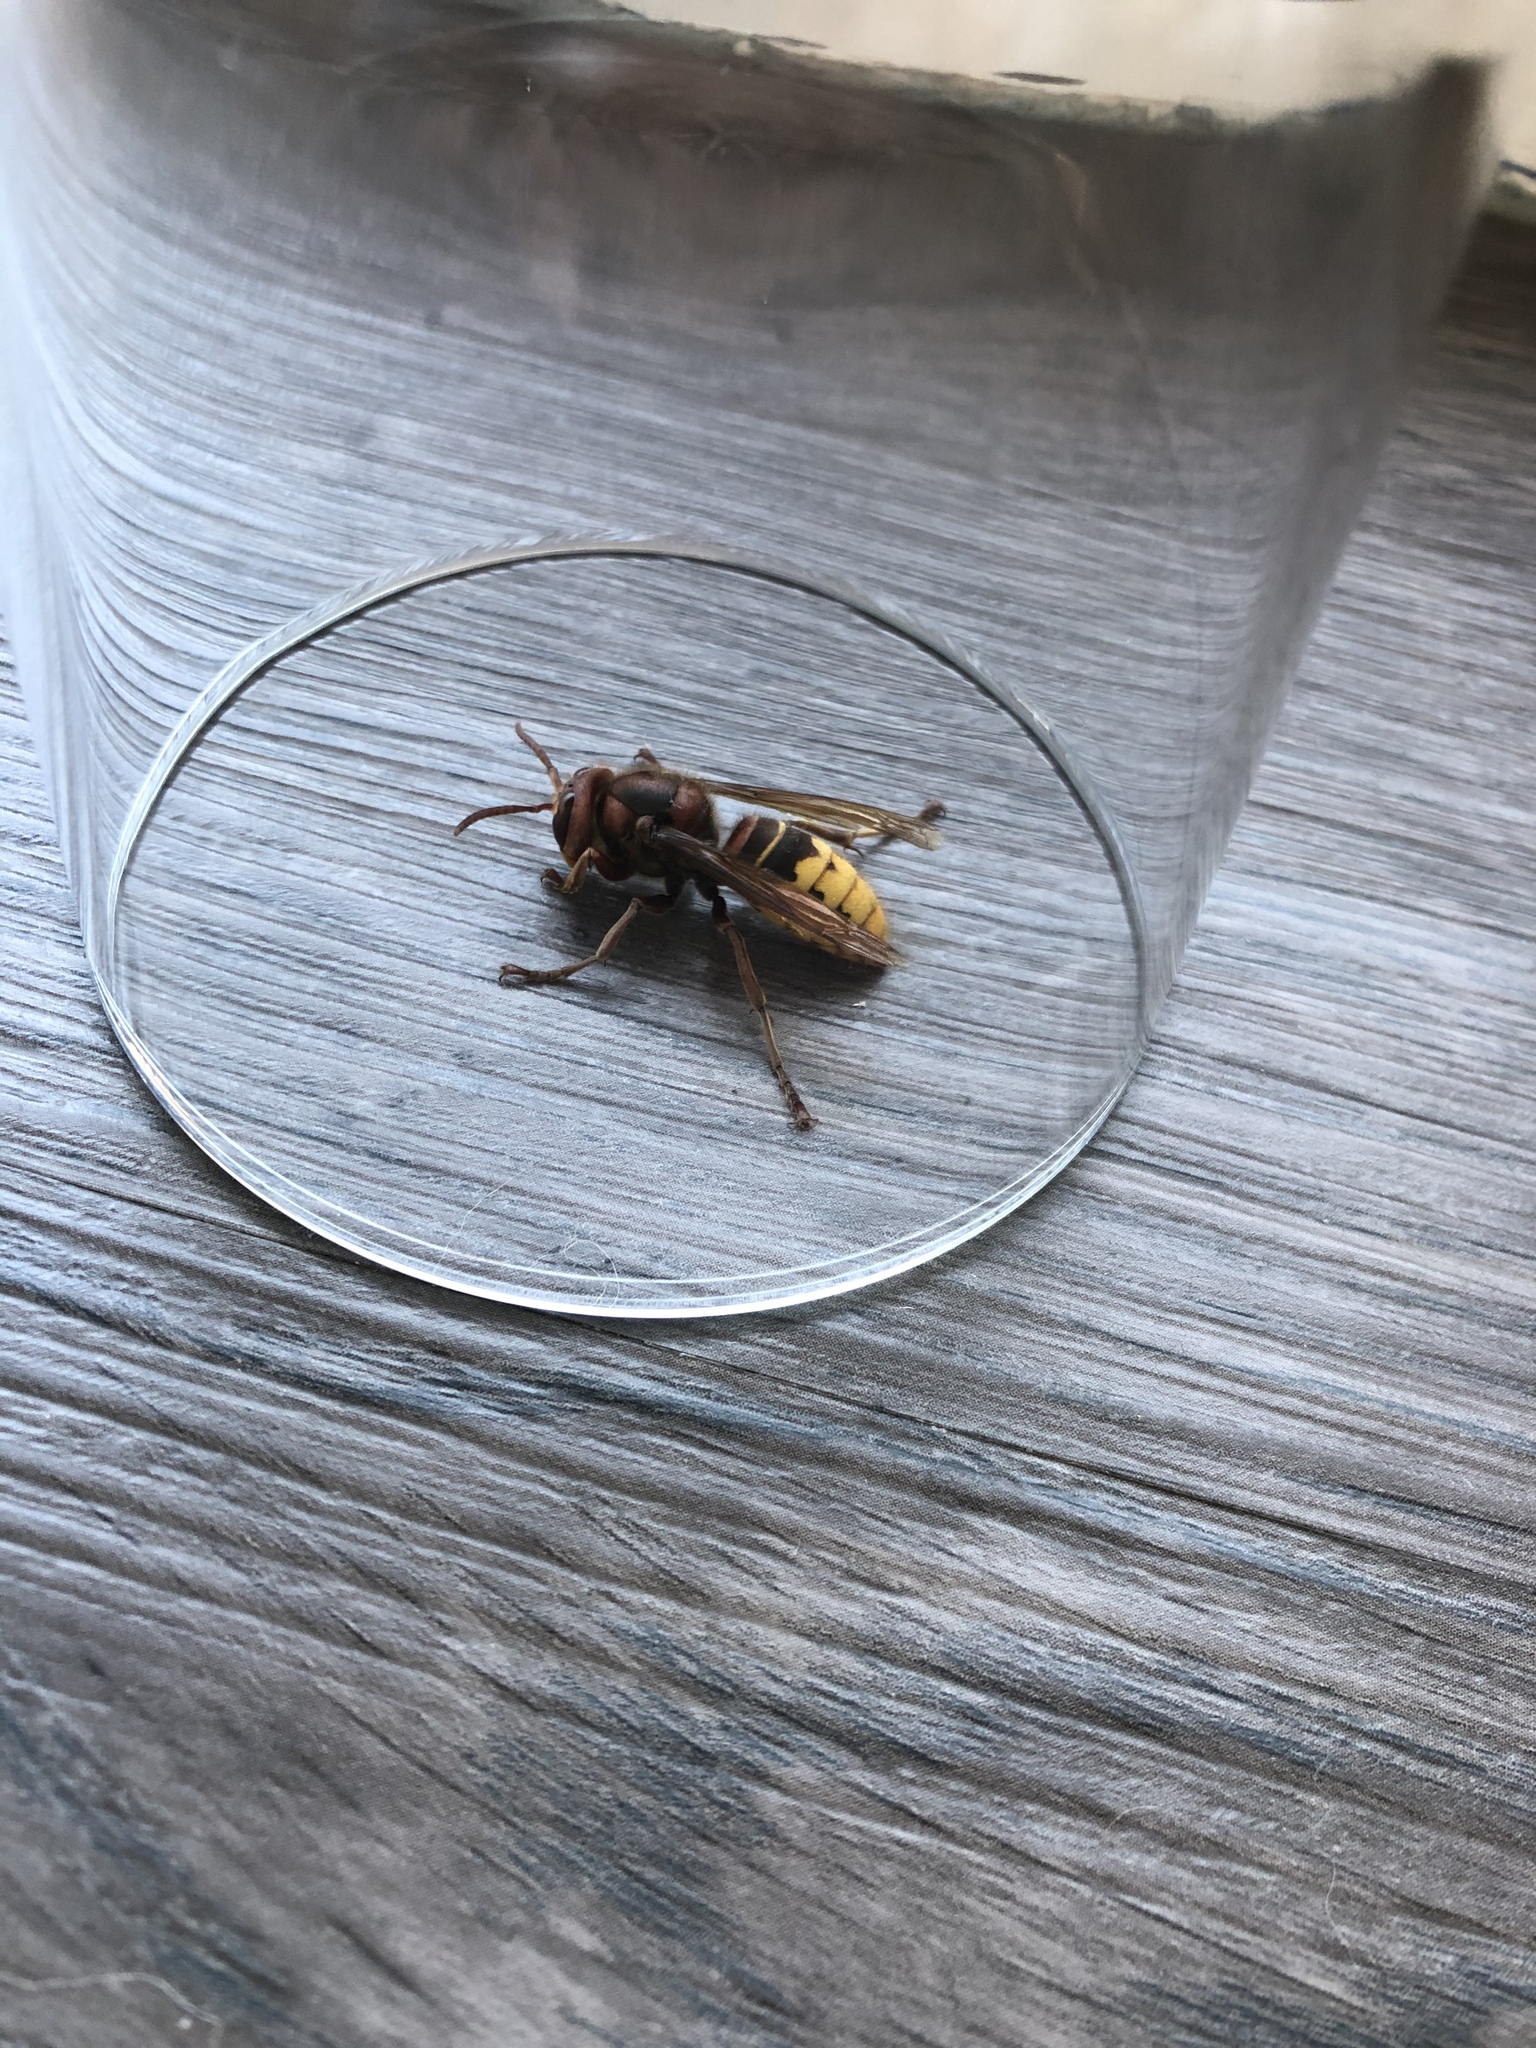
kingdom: Animalia
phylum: Arthropoda
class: Insecta
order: Hymenoptera
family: Vespidae
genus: Vespa
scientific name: Vespa crabro
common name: Hornet
